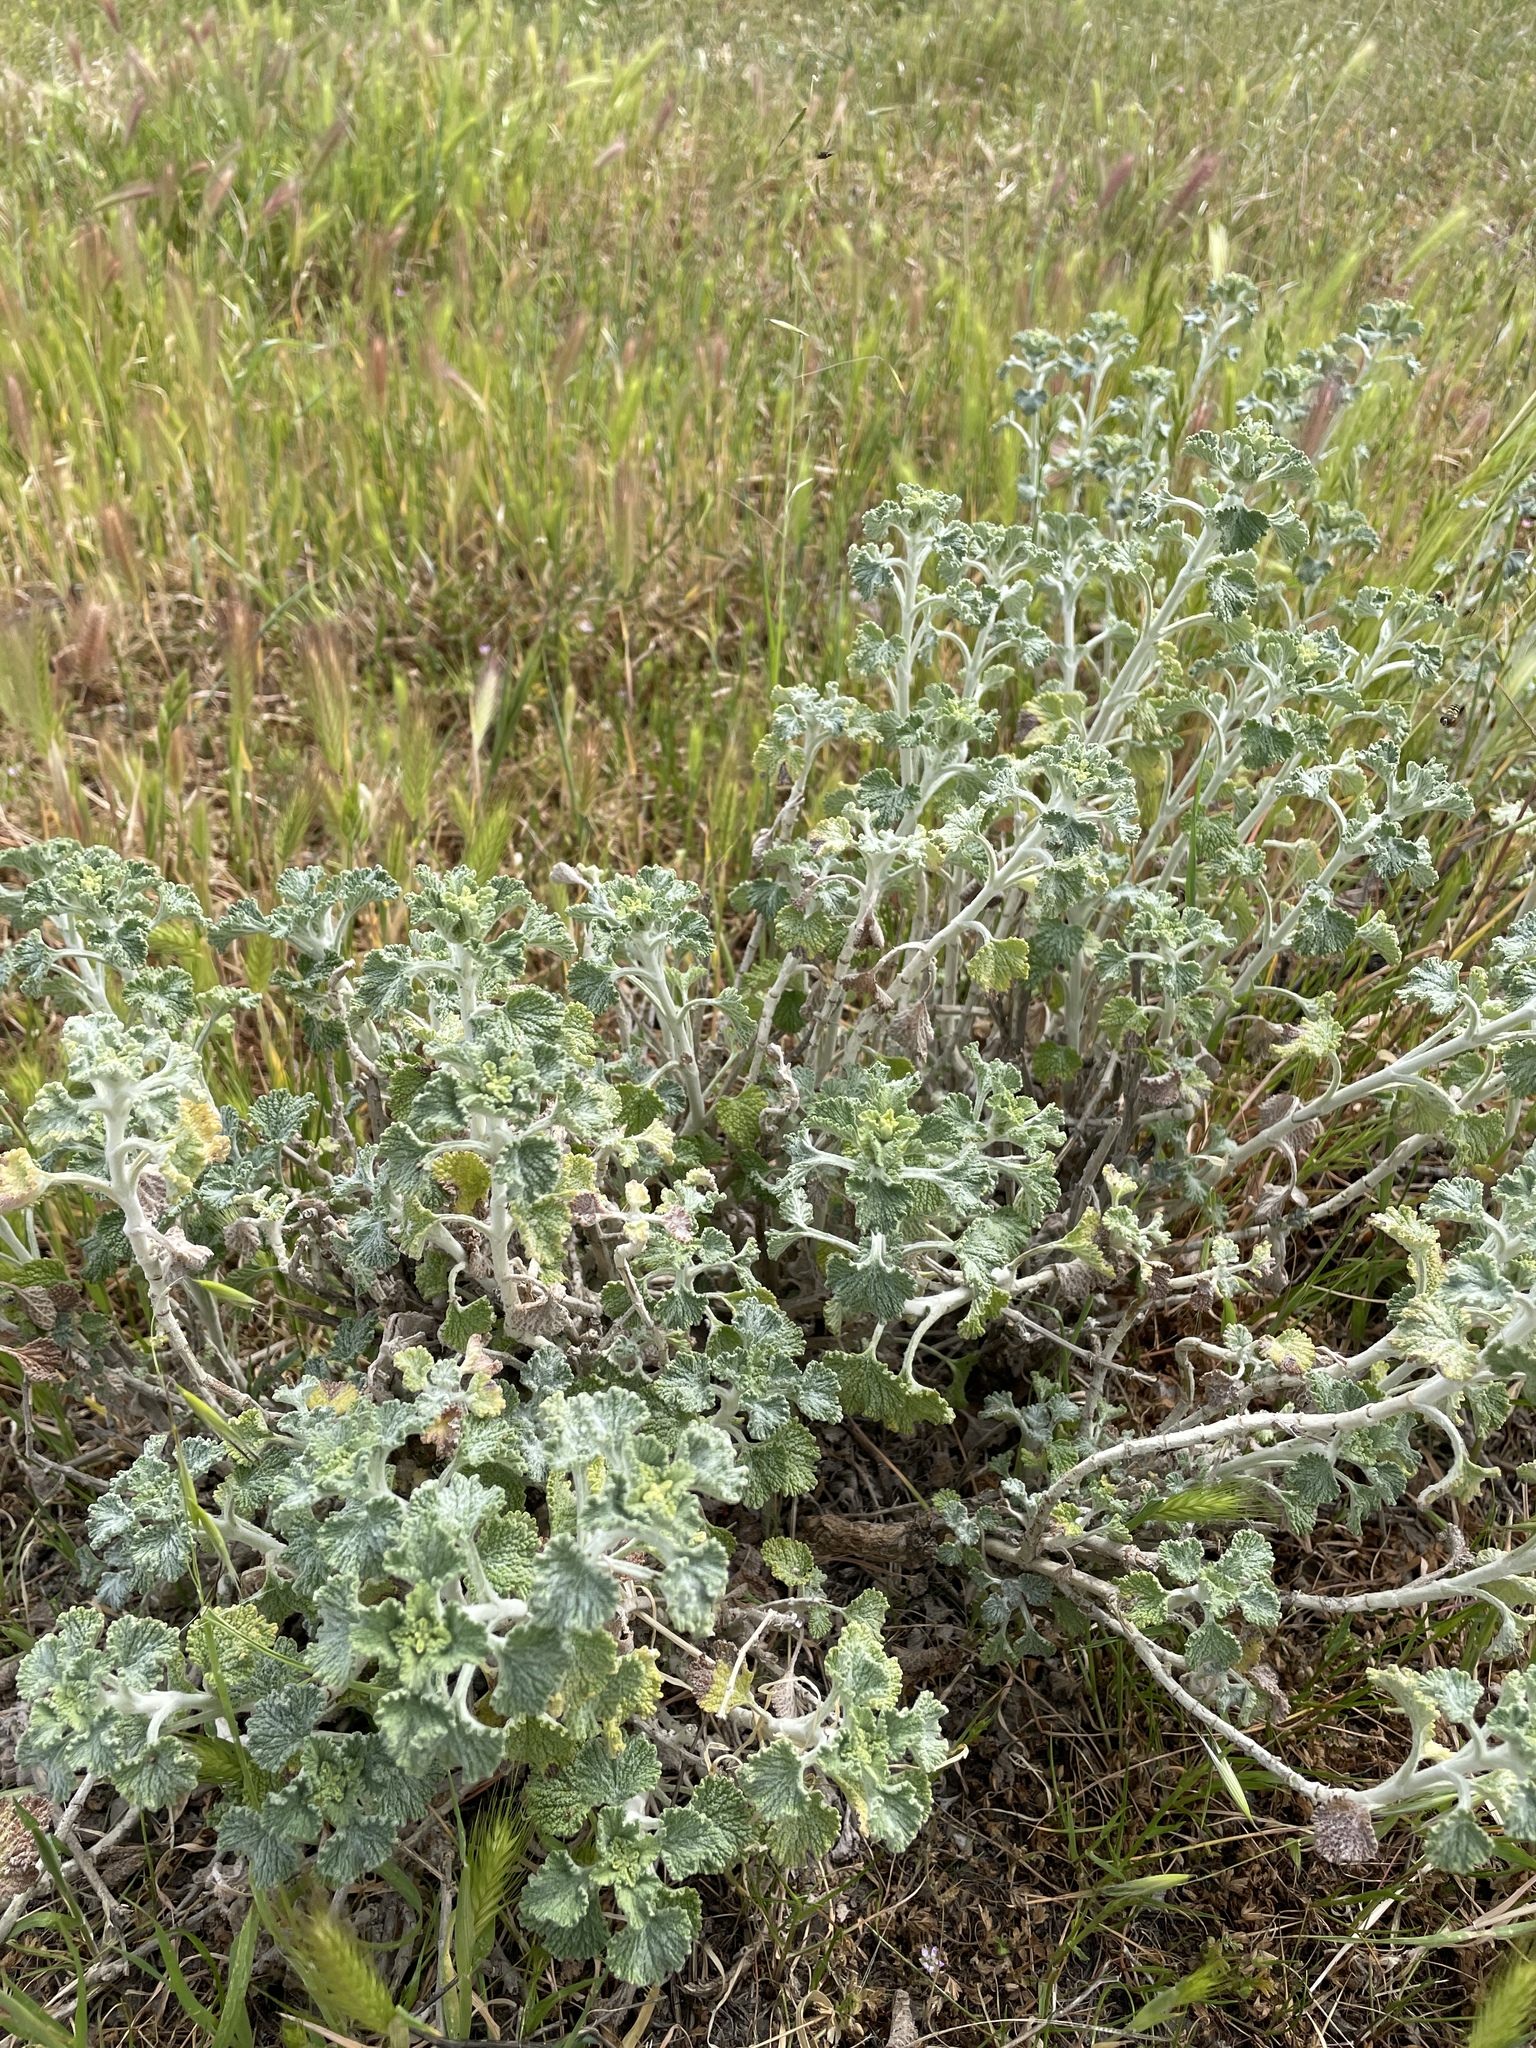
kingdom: Plantae
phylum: Tracheophyta
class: Magnoliopsida
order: Lamiales
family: Lamiaceae
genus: Marrubium
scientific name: Marrubium vulgare
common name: Horehound
